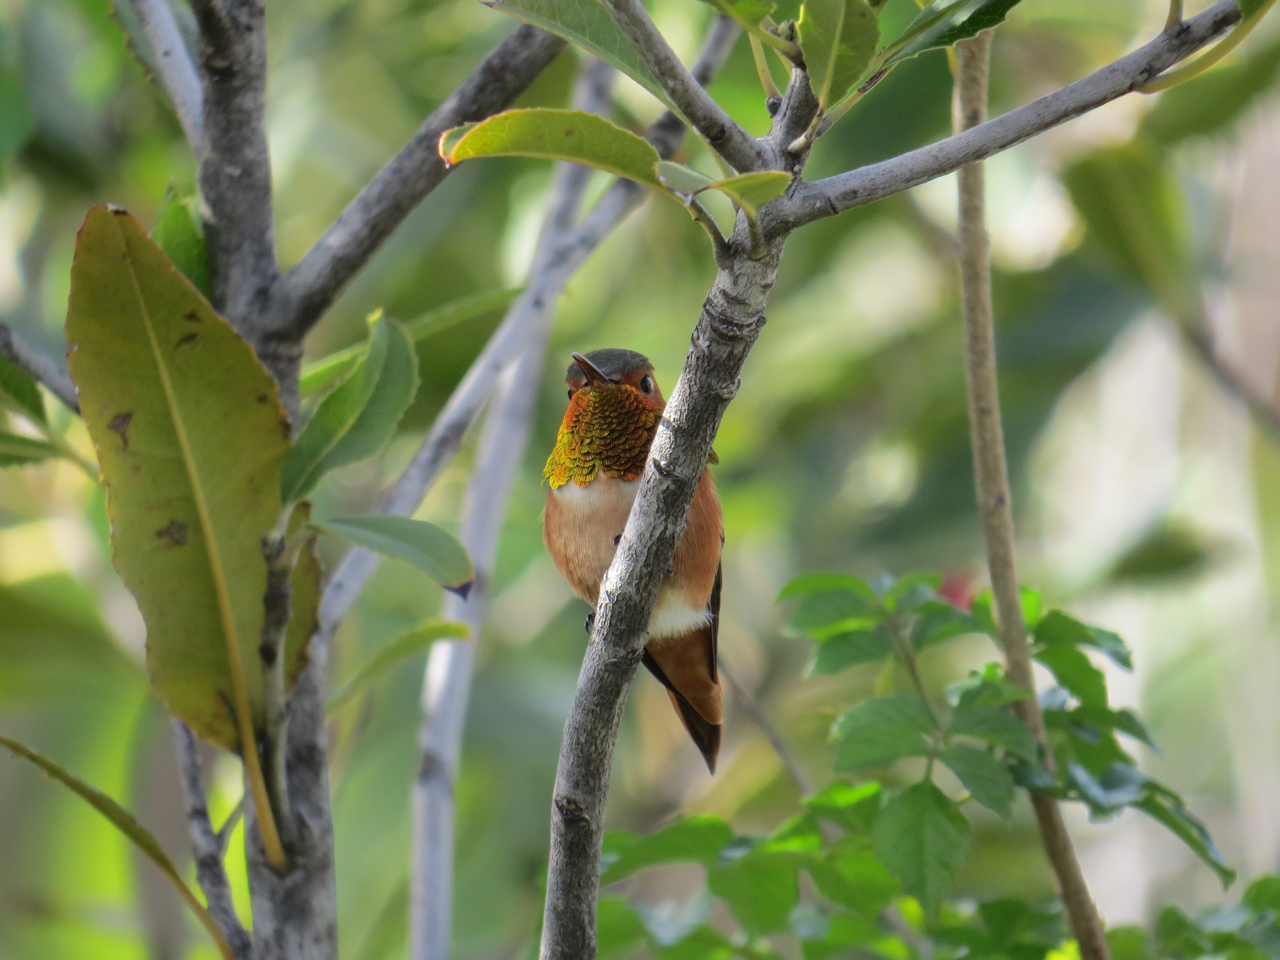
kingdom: Animalia
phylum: Chordata
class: Aves
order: Apodiformes
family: Trochilidae
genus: Selasphorus
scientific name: Selasphorus sasin
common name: Allen's hummingbird
